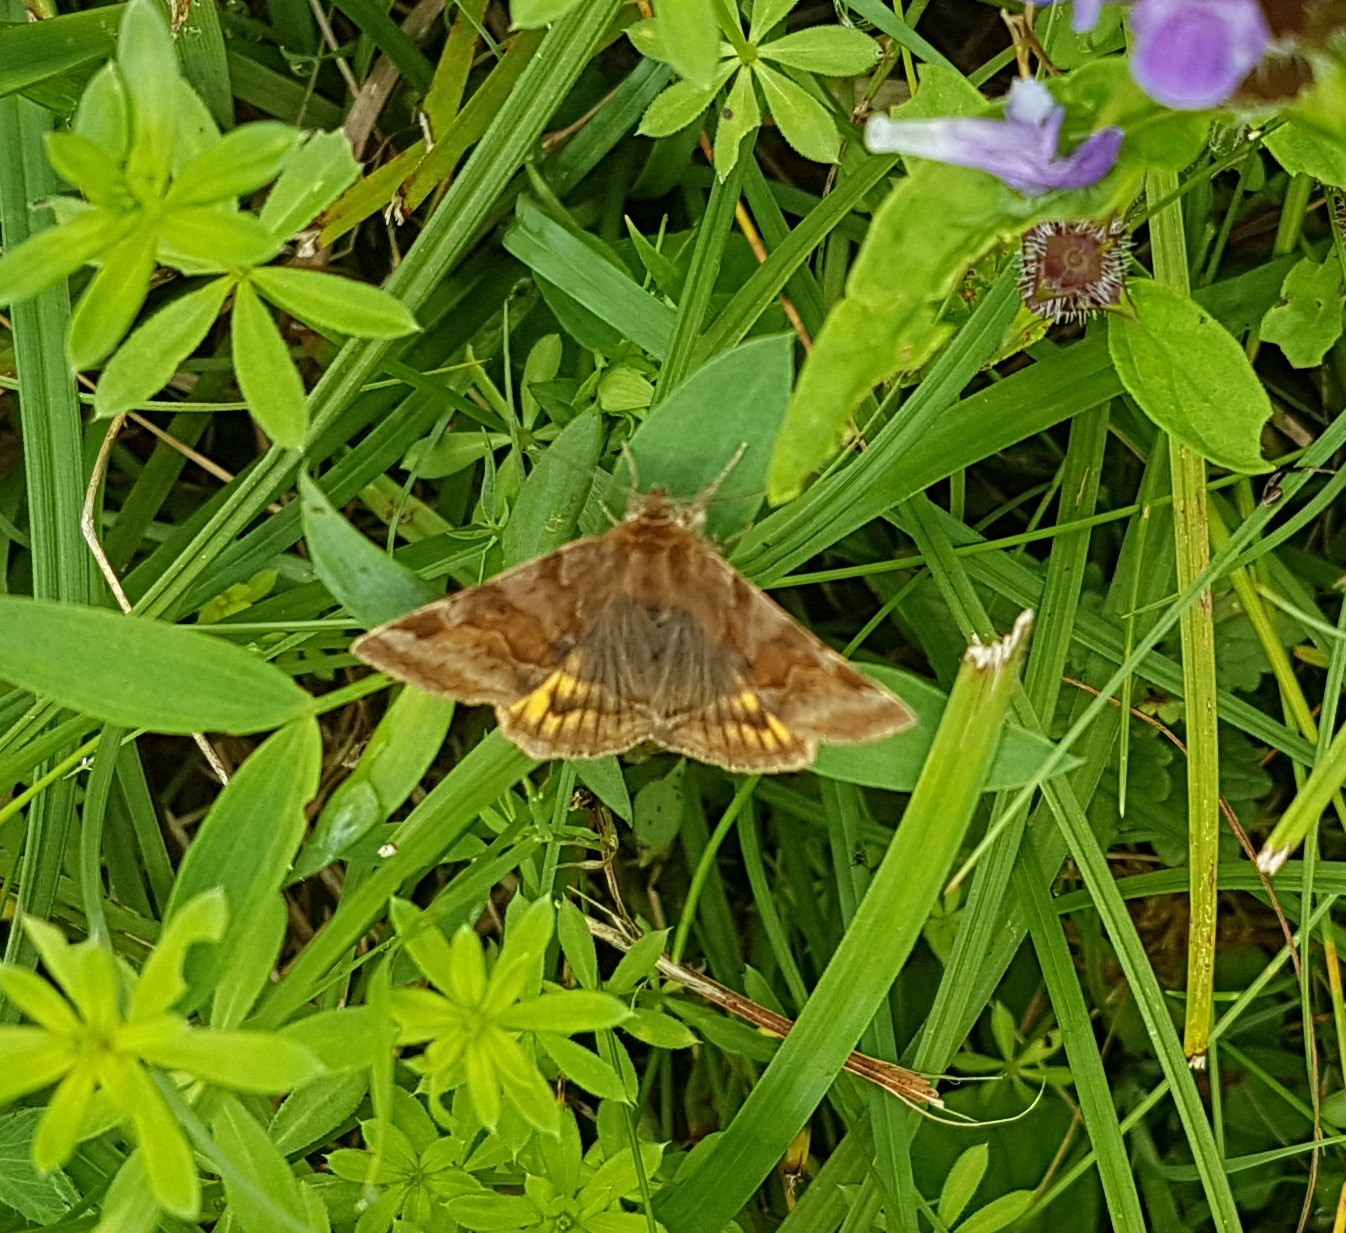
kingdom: Animalia
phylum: Arthropoda
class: Insecta
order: Lepidoptera
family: Erebidae
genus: Euclidia
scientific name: Euclidia glyphica
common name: Burnet companion
